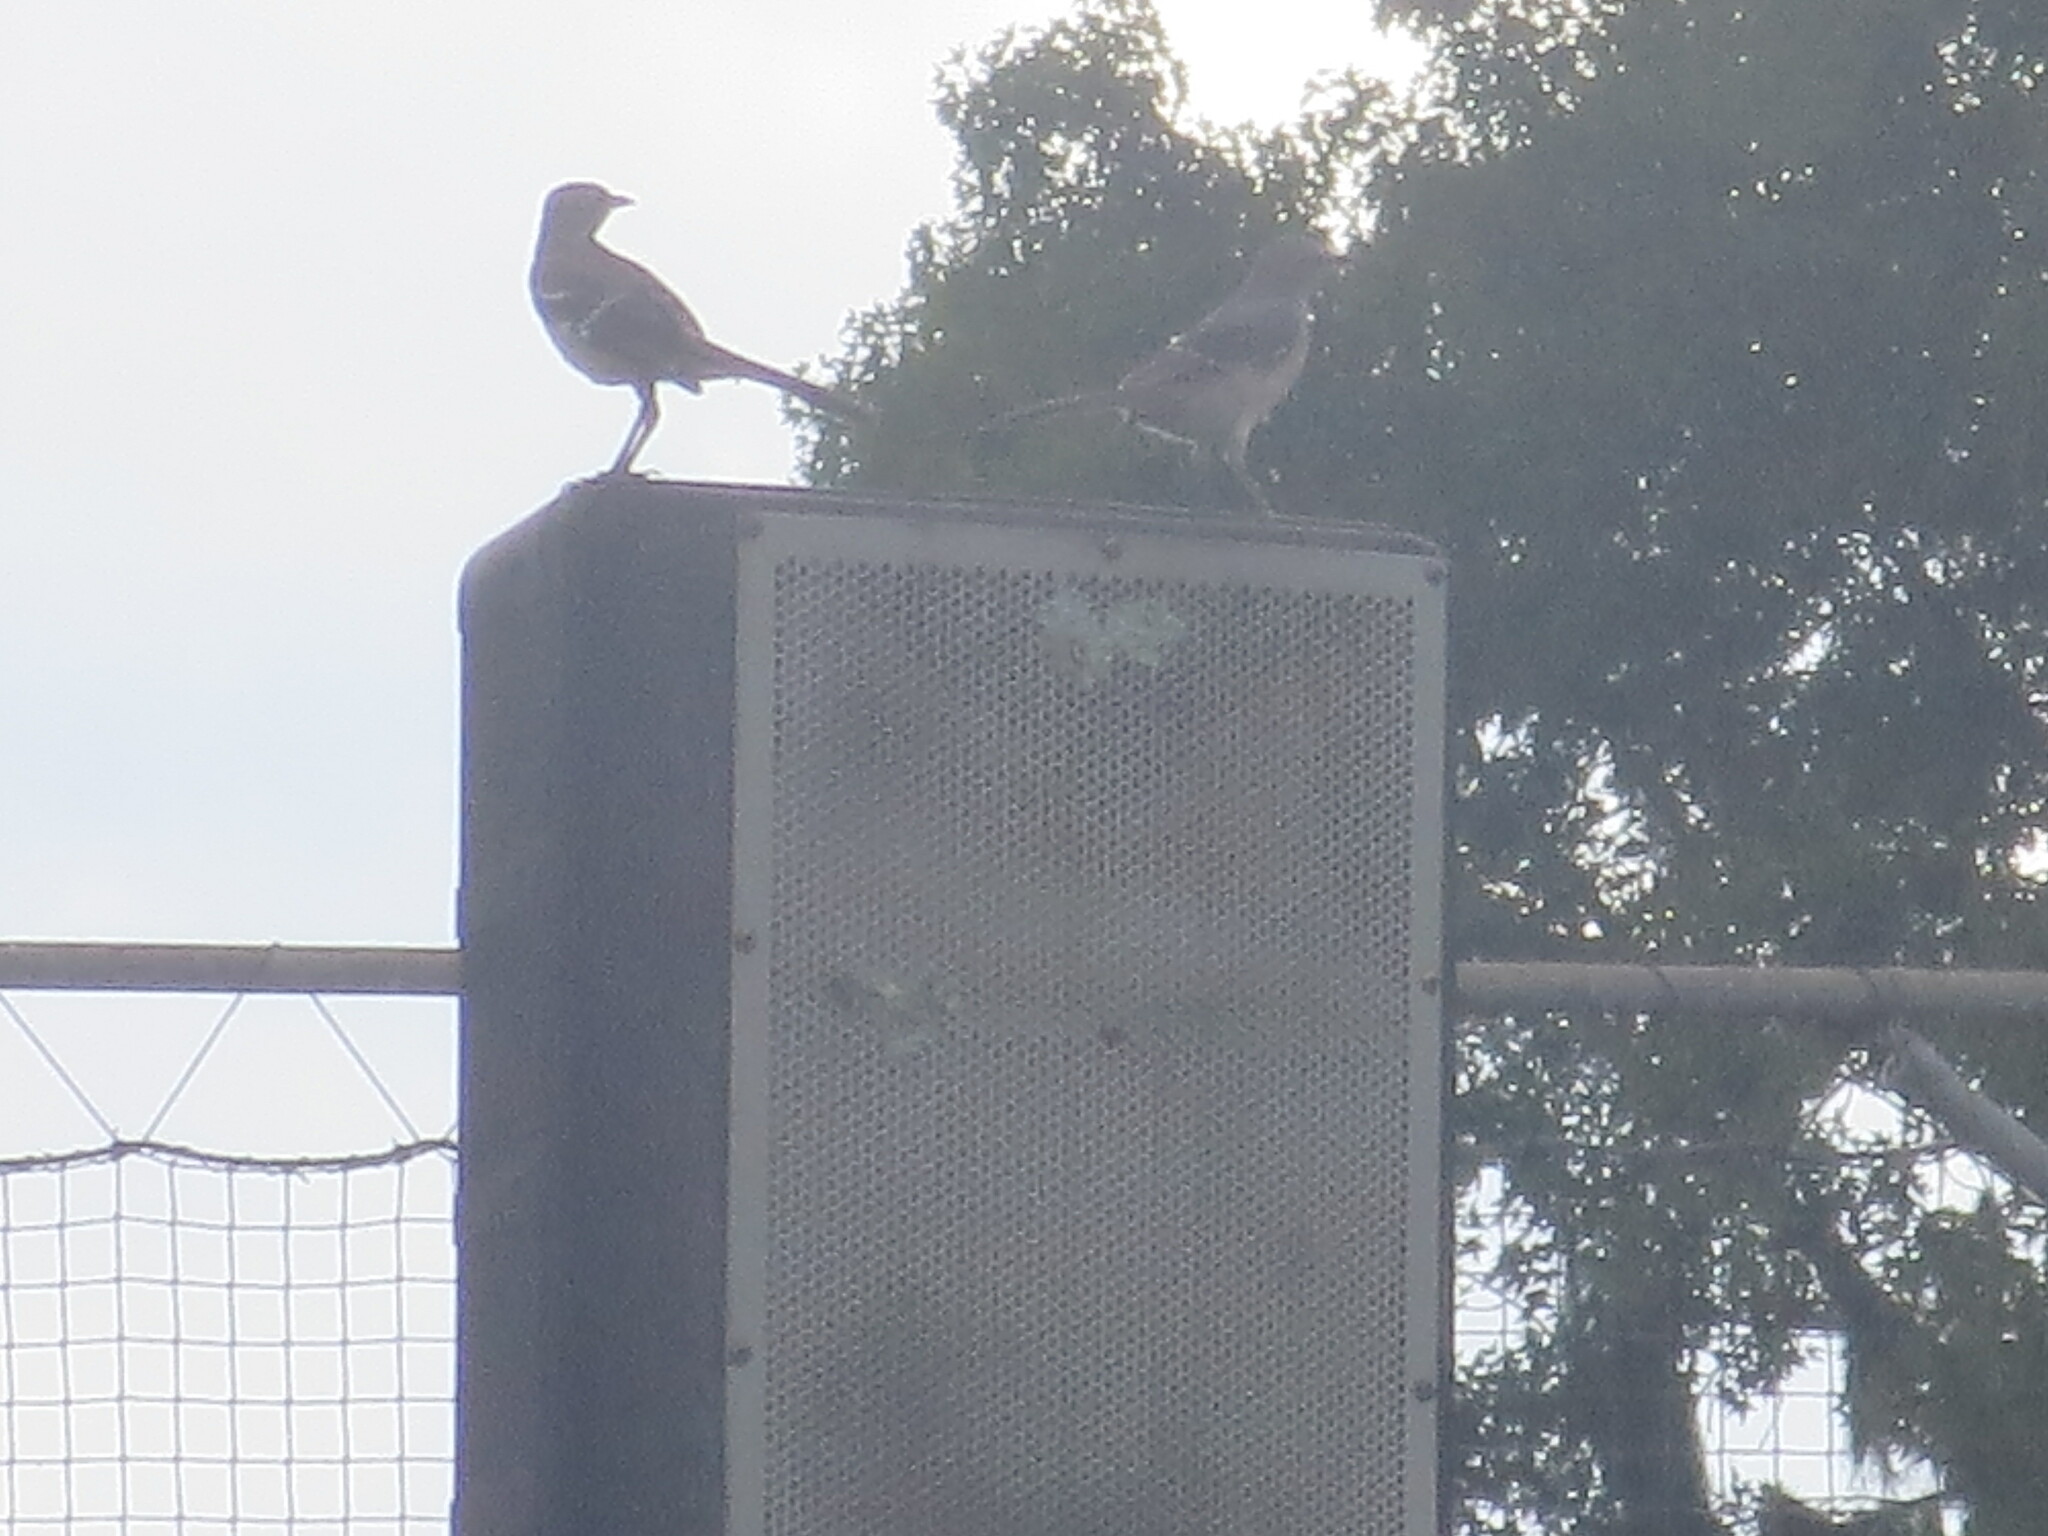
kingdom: Animalia
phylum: Chordata
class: Aves
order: Passeriformes
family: Mimidae
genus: Mimus
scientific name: Mimus polyglottos
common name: Northern mockingbird
